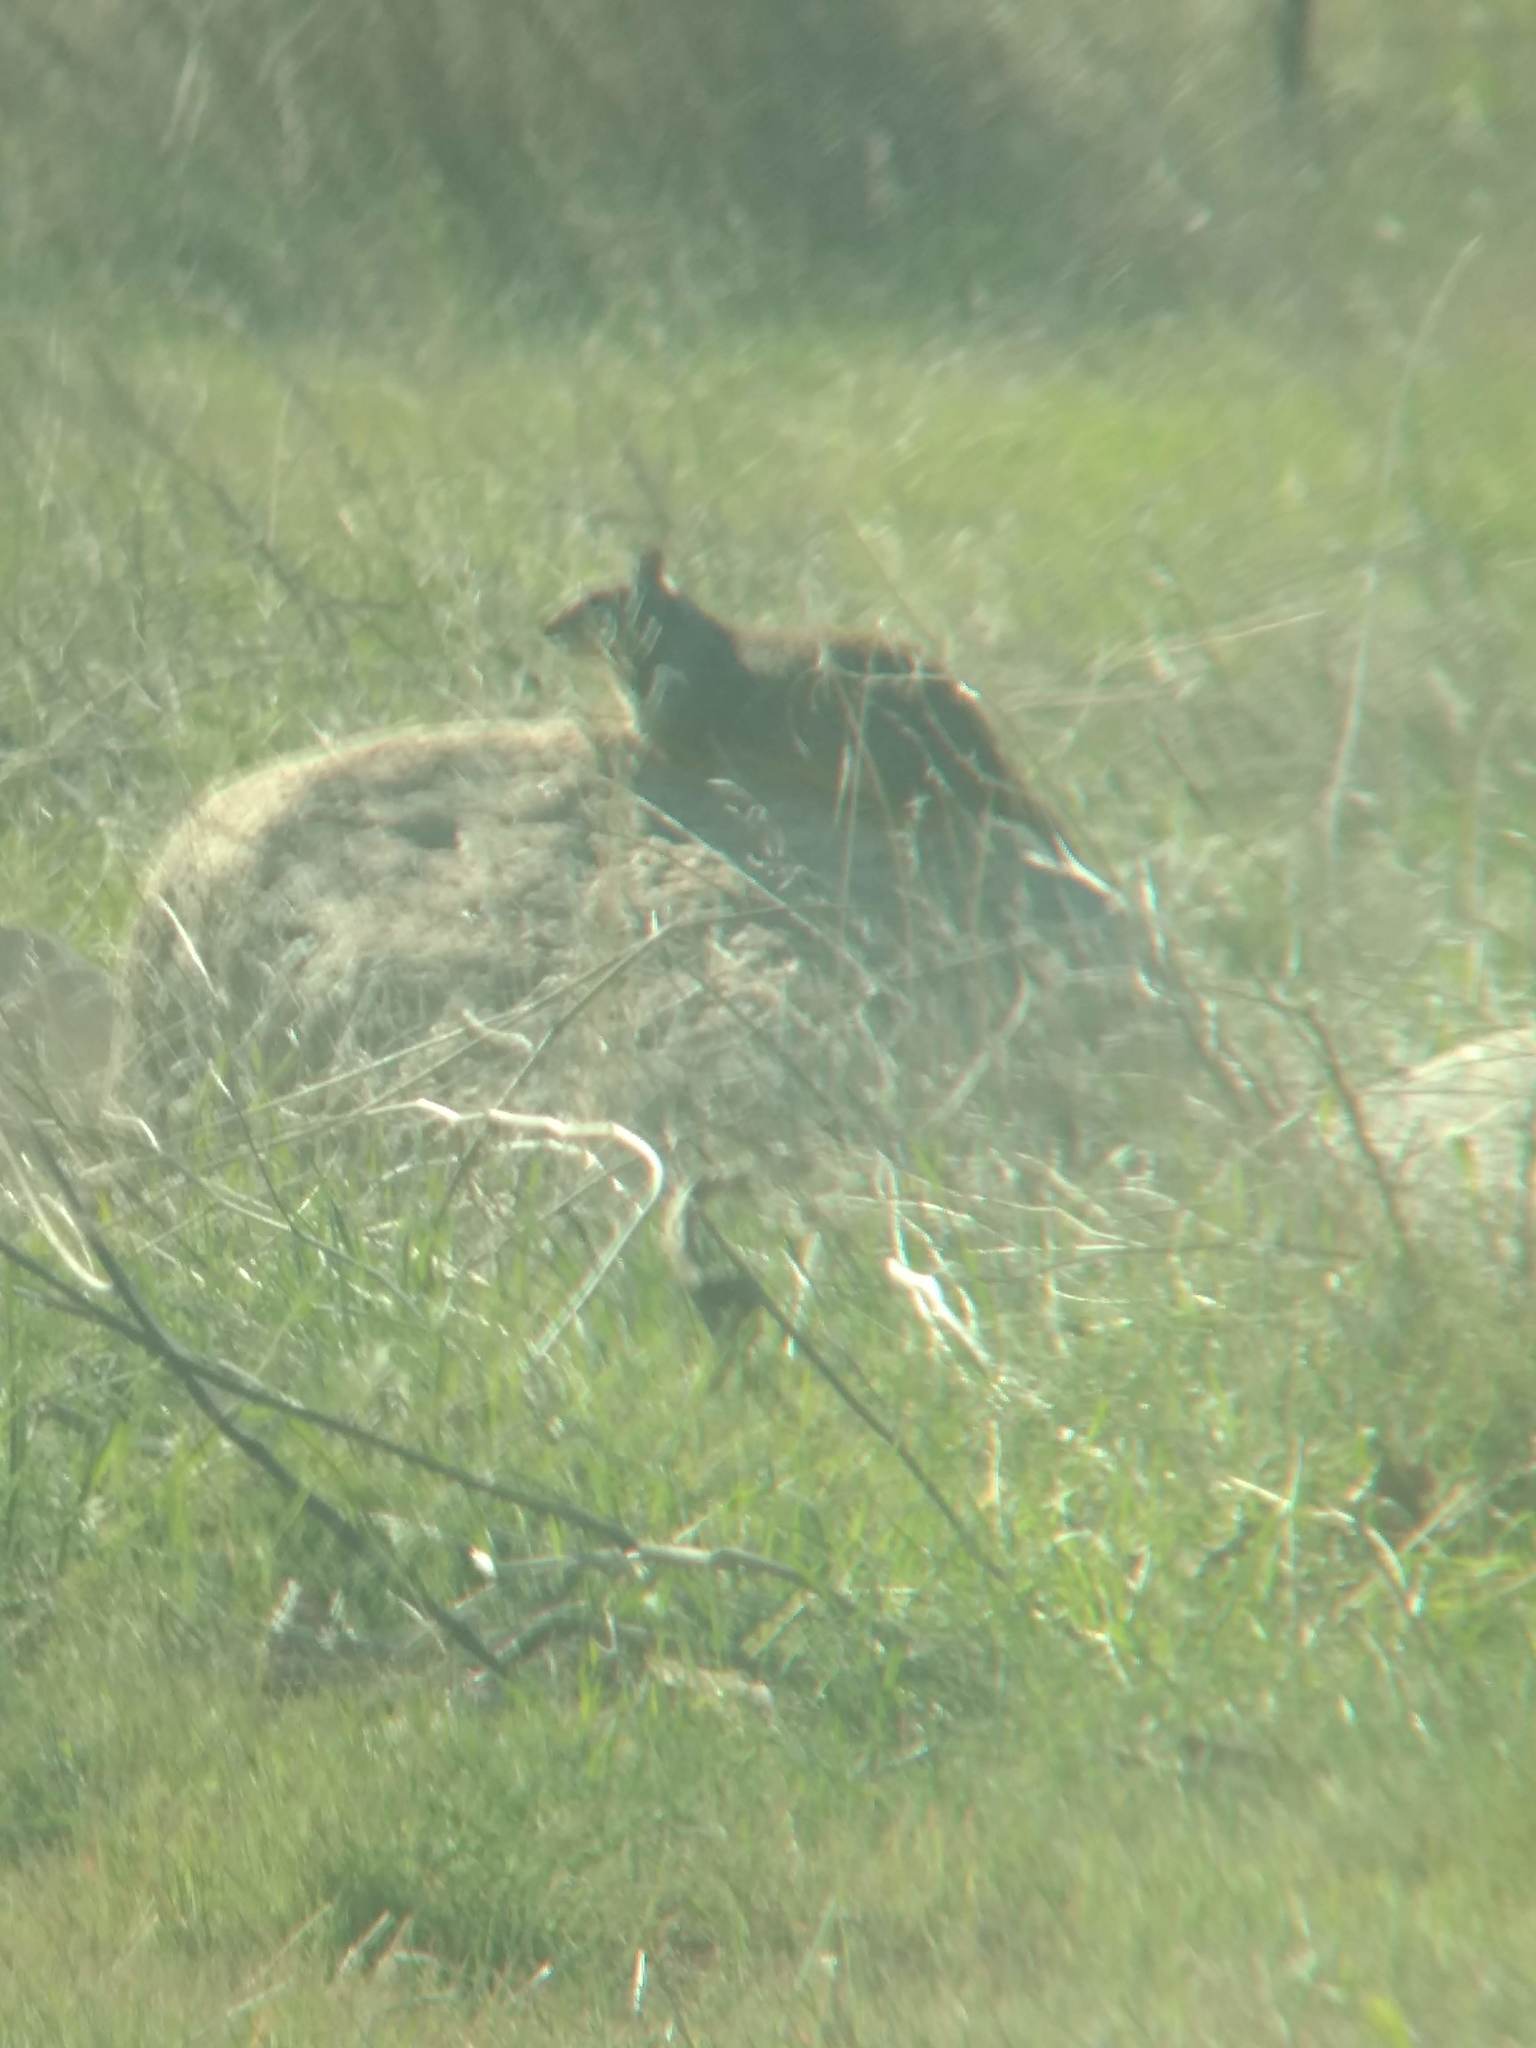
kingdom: Animalia
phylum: Chordata
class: Mammalia
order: Rodentia
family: Sciuridae
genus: Otospermophilus
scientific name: Otospermophilus beecheyi
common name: California ground squirrel
